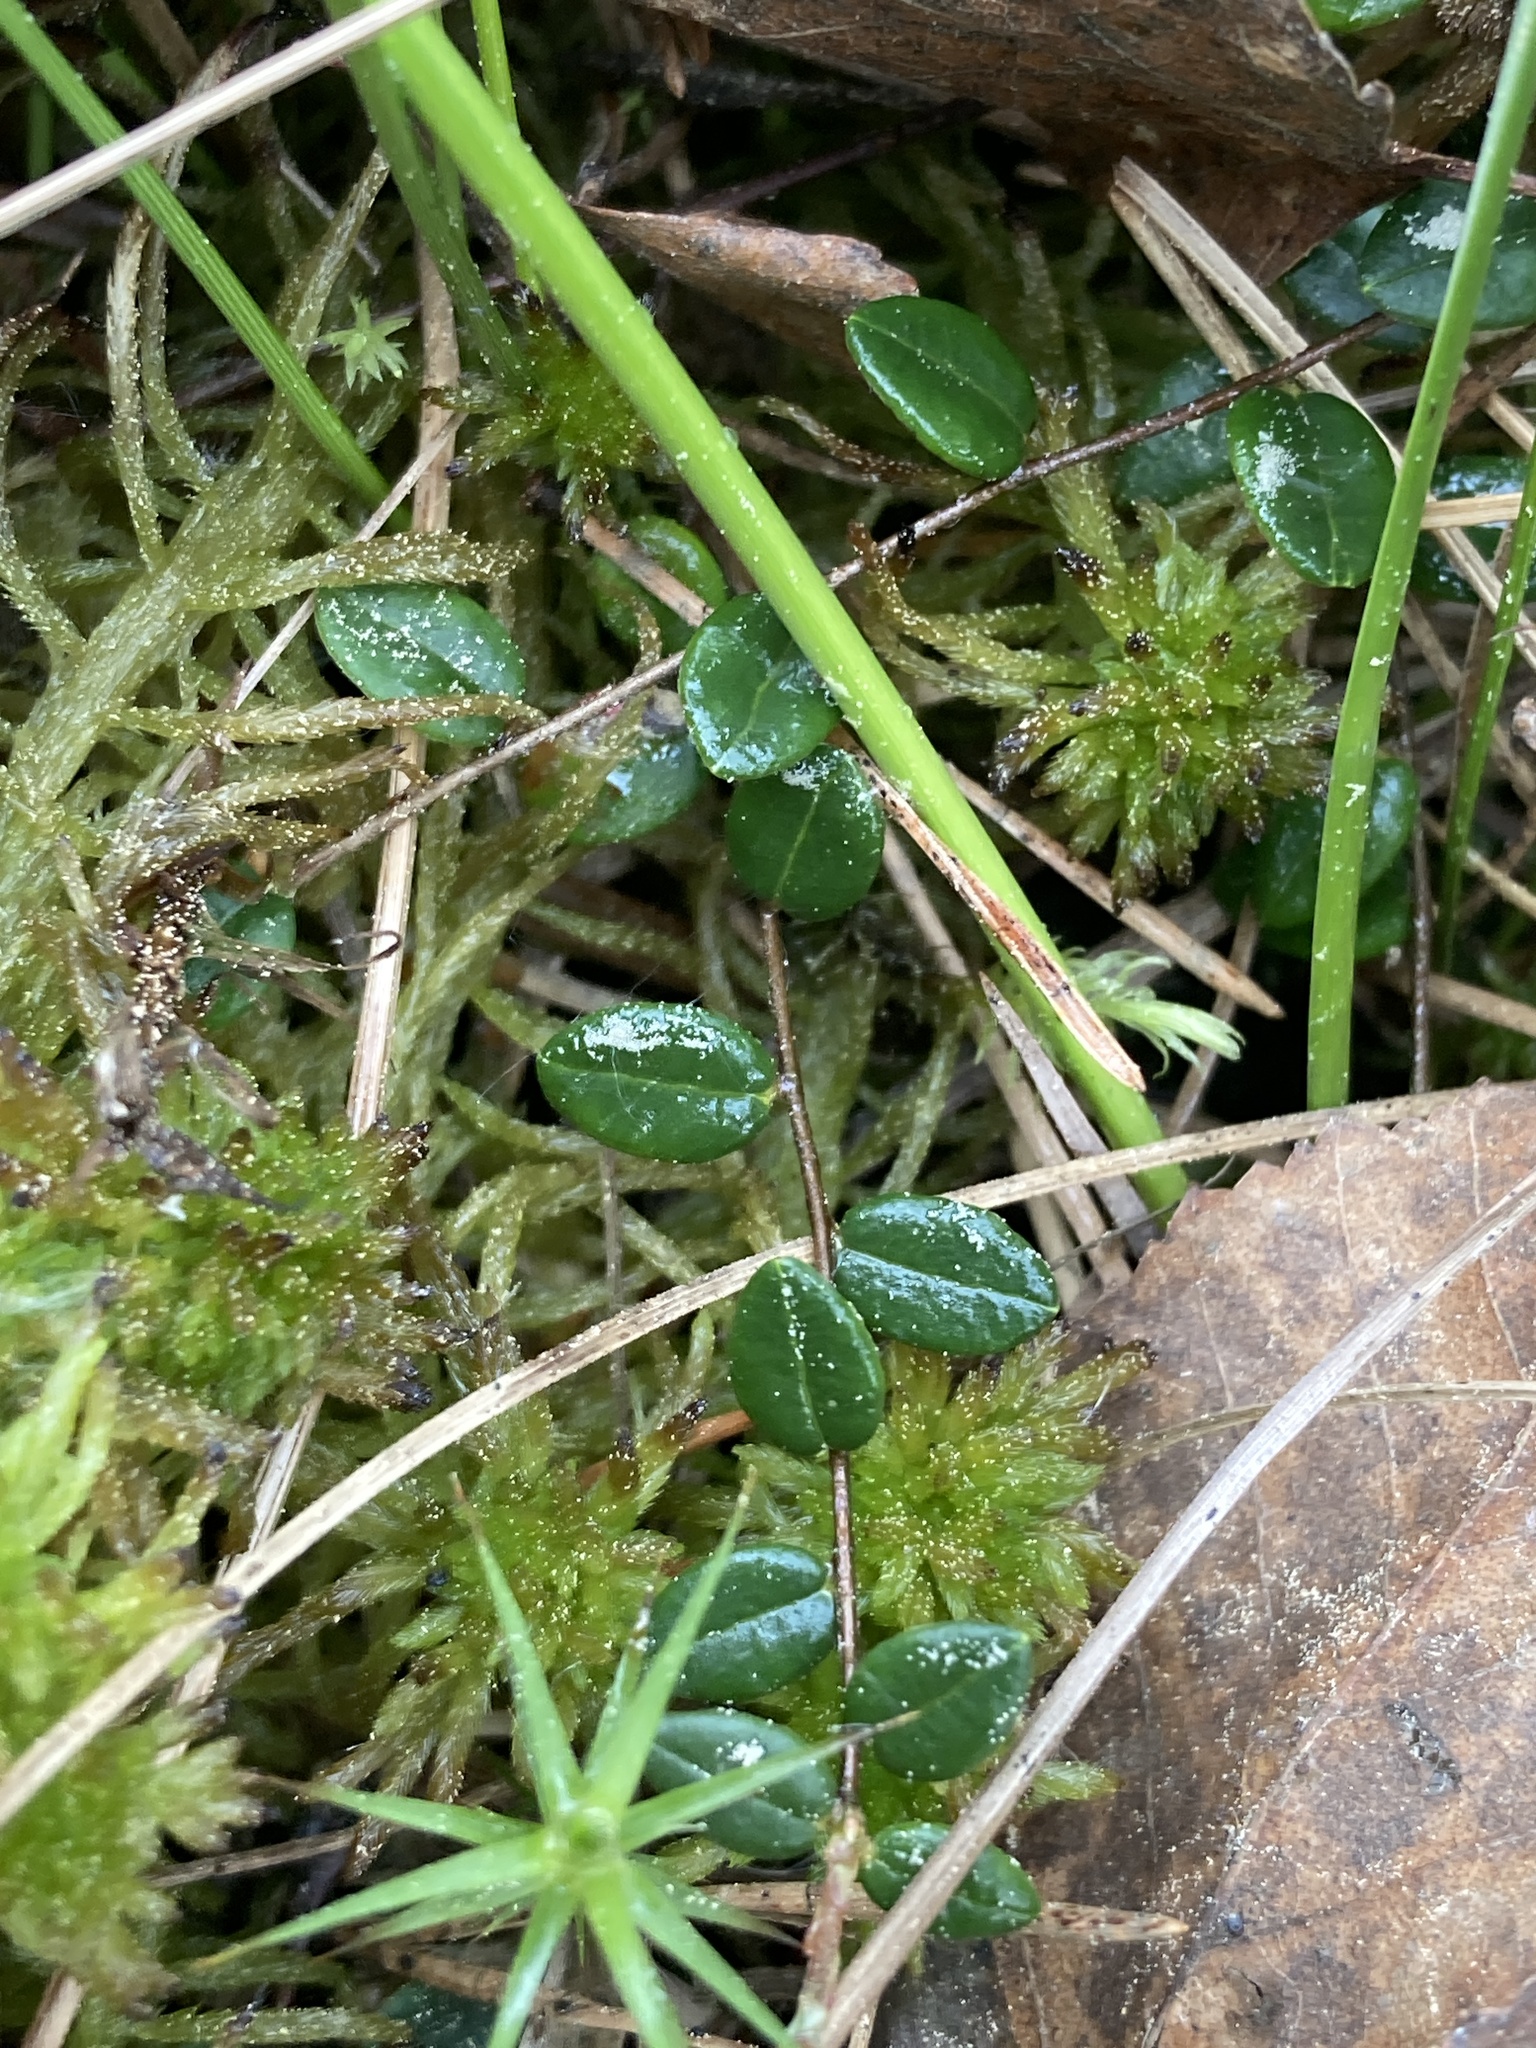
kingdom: Plantae
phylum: Tracheophyta
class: Magnoliopsida
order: Ericales
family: Ericaceae
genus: Vaccinium
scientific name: Vaccinium oxycoccos
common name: Cranberry
